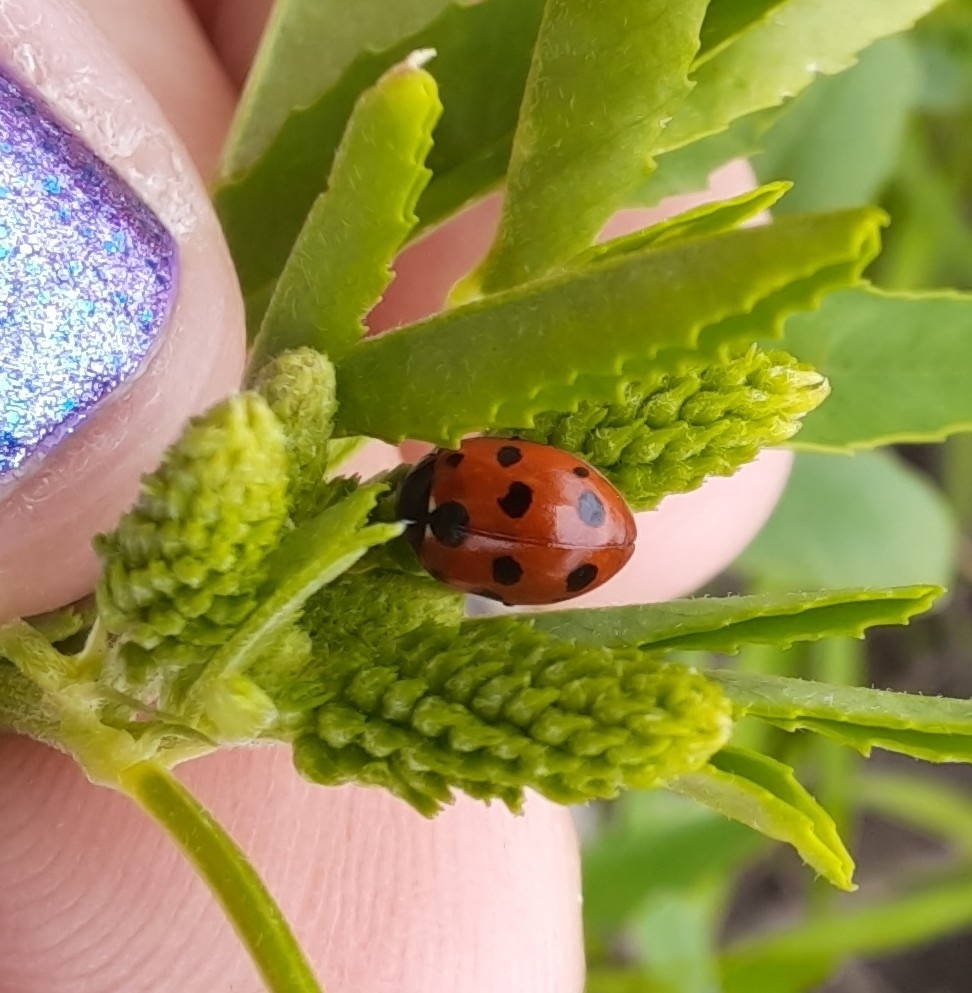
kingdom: Animalia
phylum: Arthropoda
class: Insecta
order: Coleoptera
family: Coccinellidae
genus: Coccinella
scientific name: Coccinella undecimpunctata
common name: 11-spot ladybird
